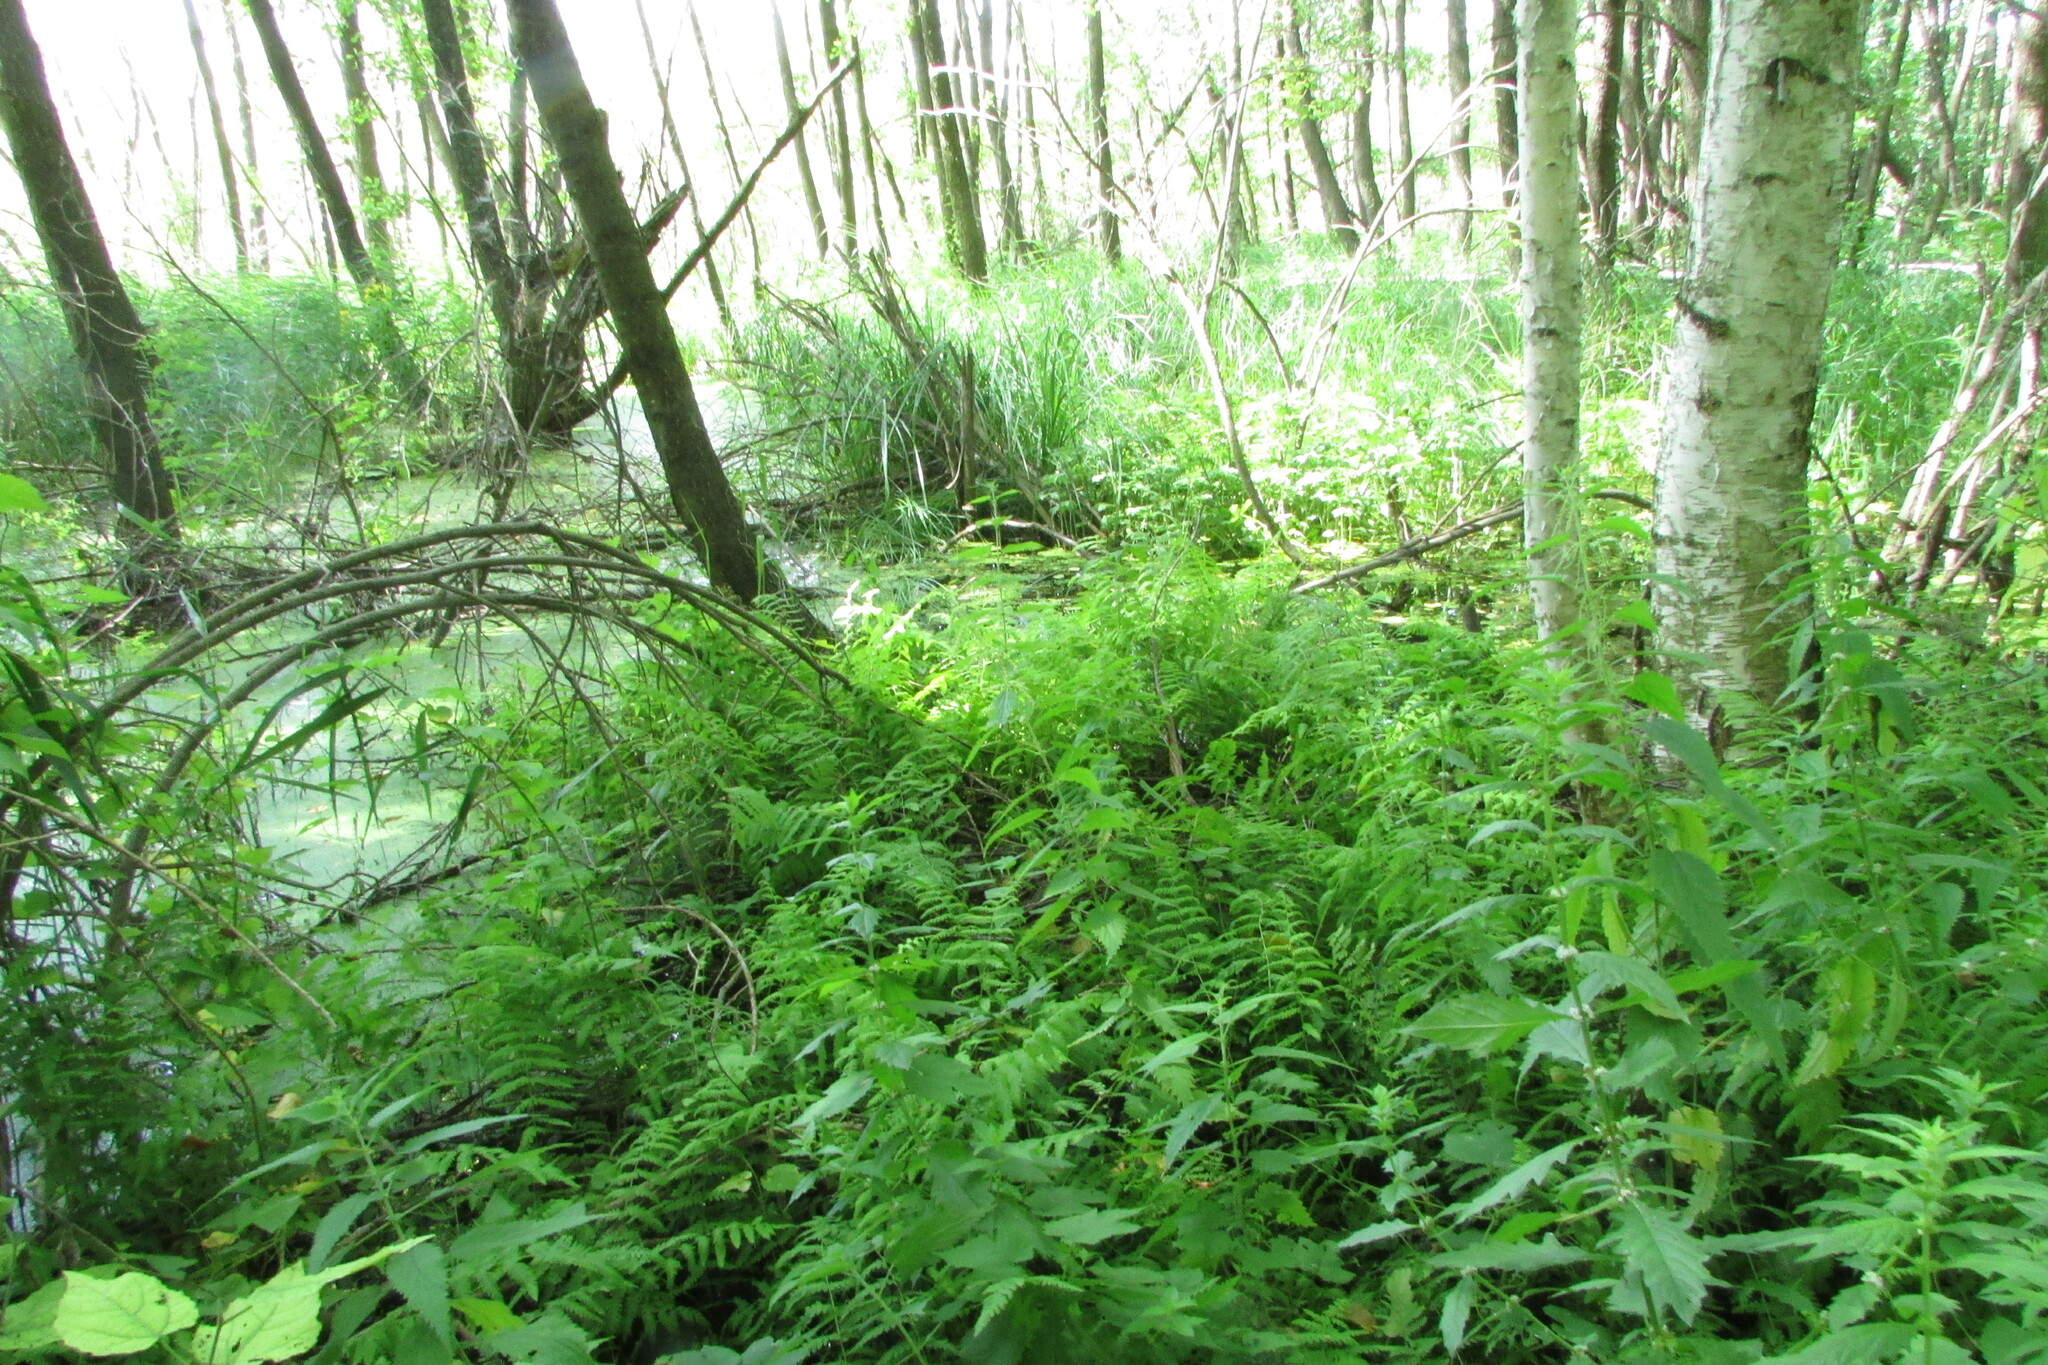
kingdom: Plantae
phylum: Tracheophyta
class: Polypodiopsida
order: Polypodiales
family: Thelypteridaceae
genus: Thelypteris
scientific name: Thelypteris palustris
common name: Marsh fern
